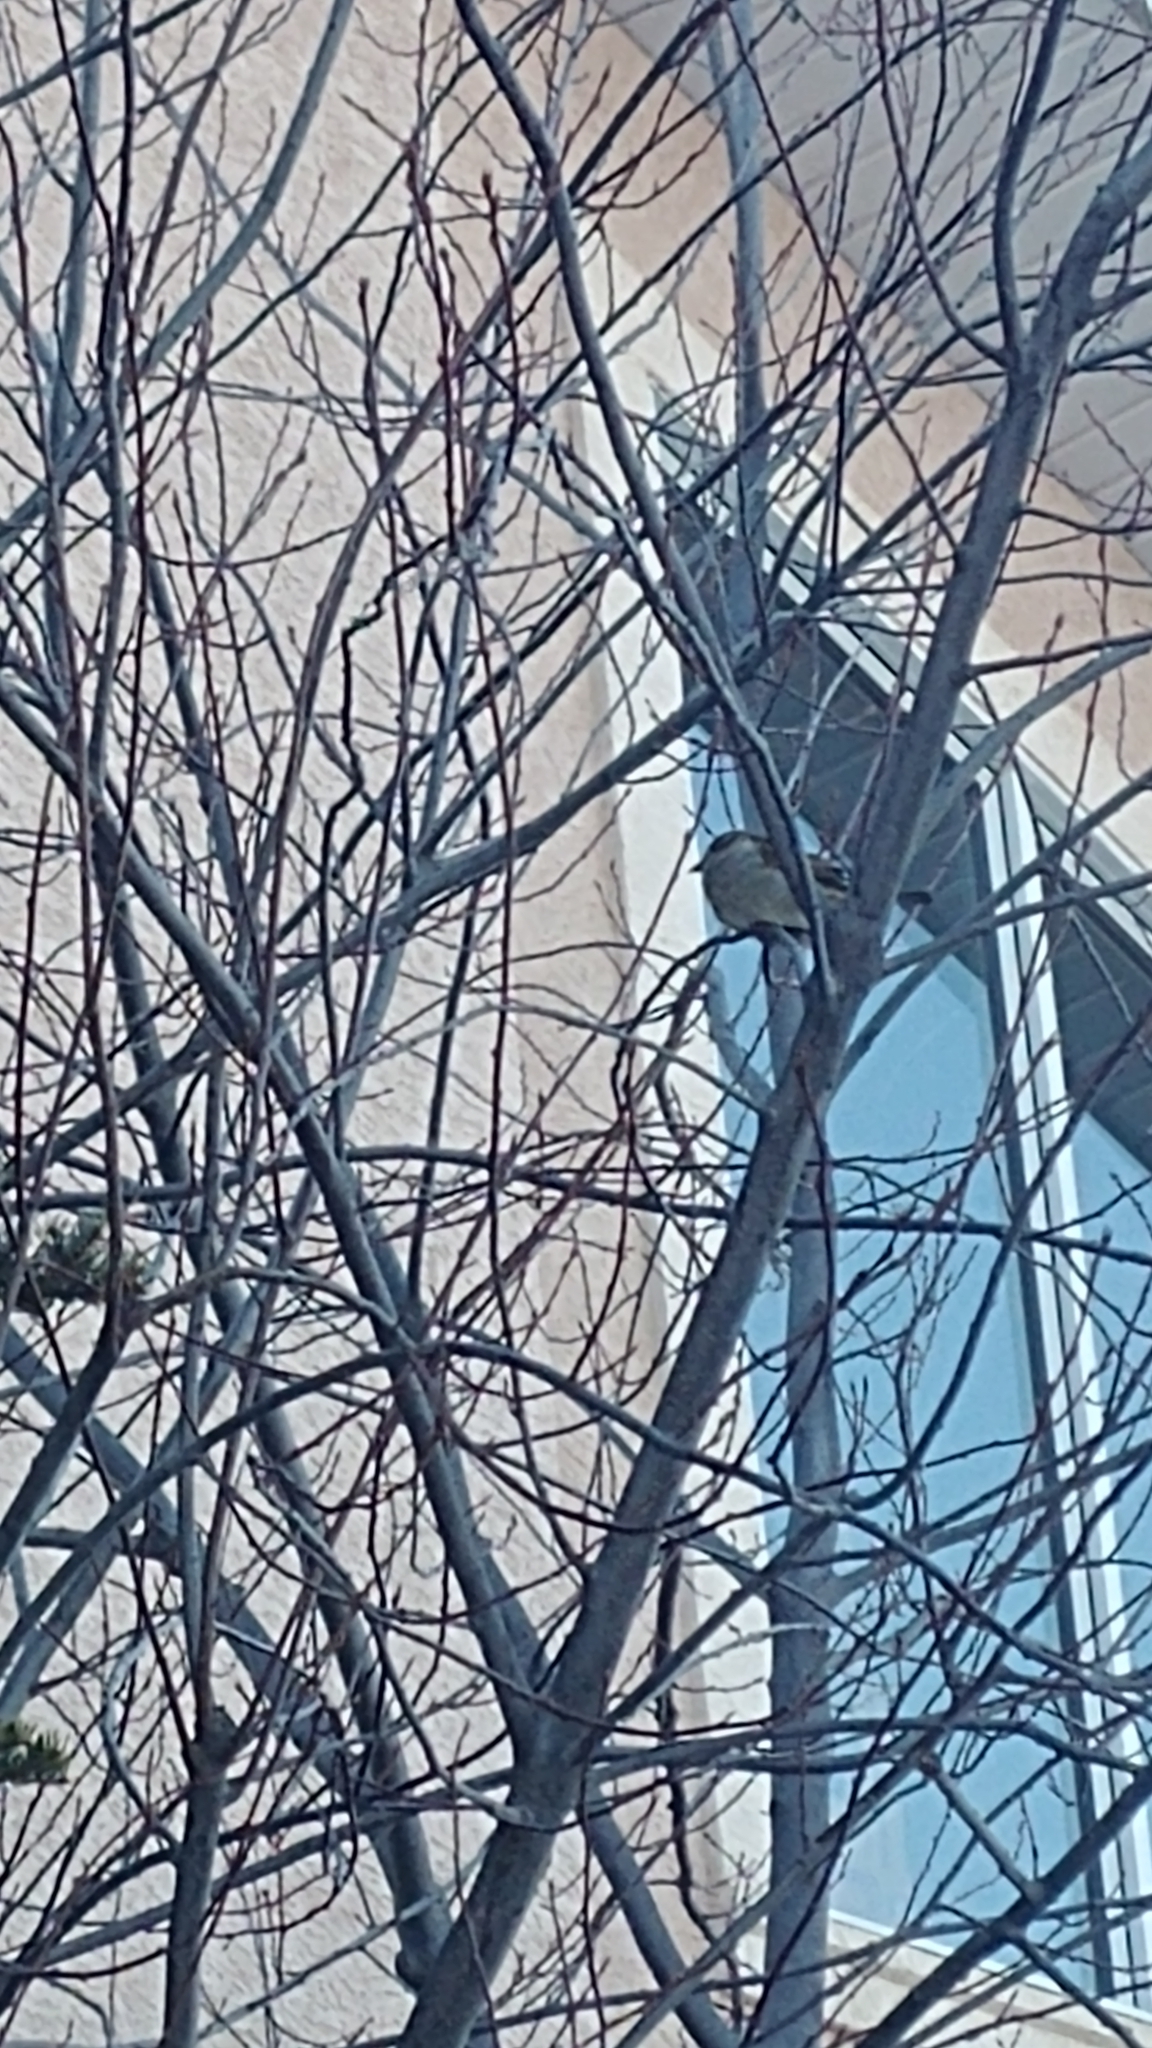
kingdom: Animalia
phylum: Chordata
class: Aves
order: Passeriformes
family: Passeridae
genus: Passer
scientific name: Passer domesticus
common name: House sparrow
